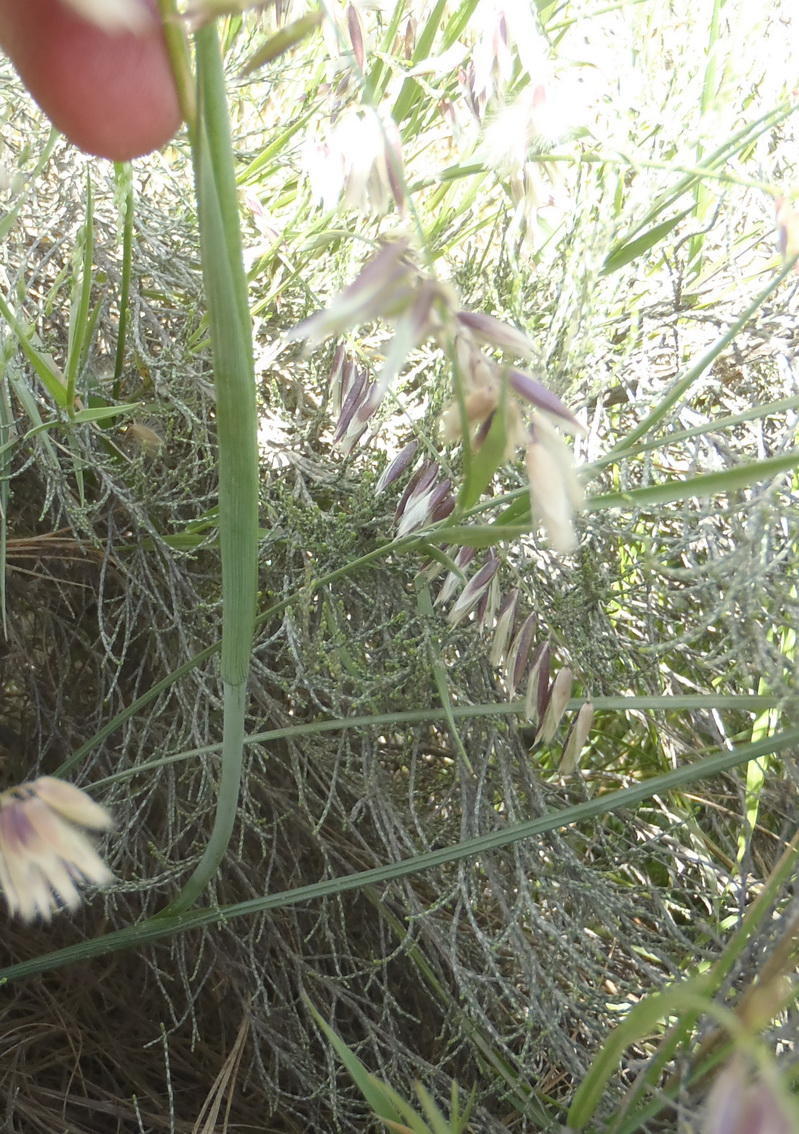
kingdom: Plantae
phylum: Tracheophyta
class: Liliopsida
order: Asparagales
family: Iridaceae
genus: Gladiolus
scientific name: Gladiolus leptosiphon
